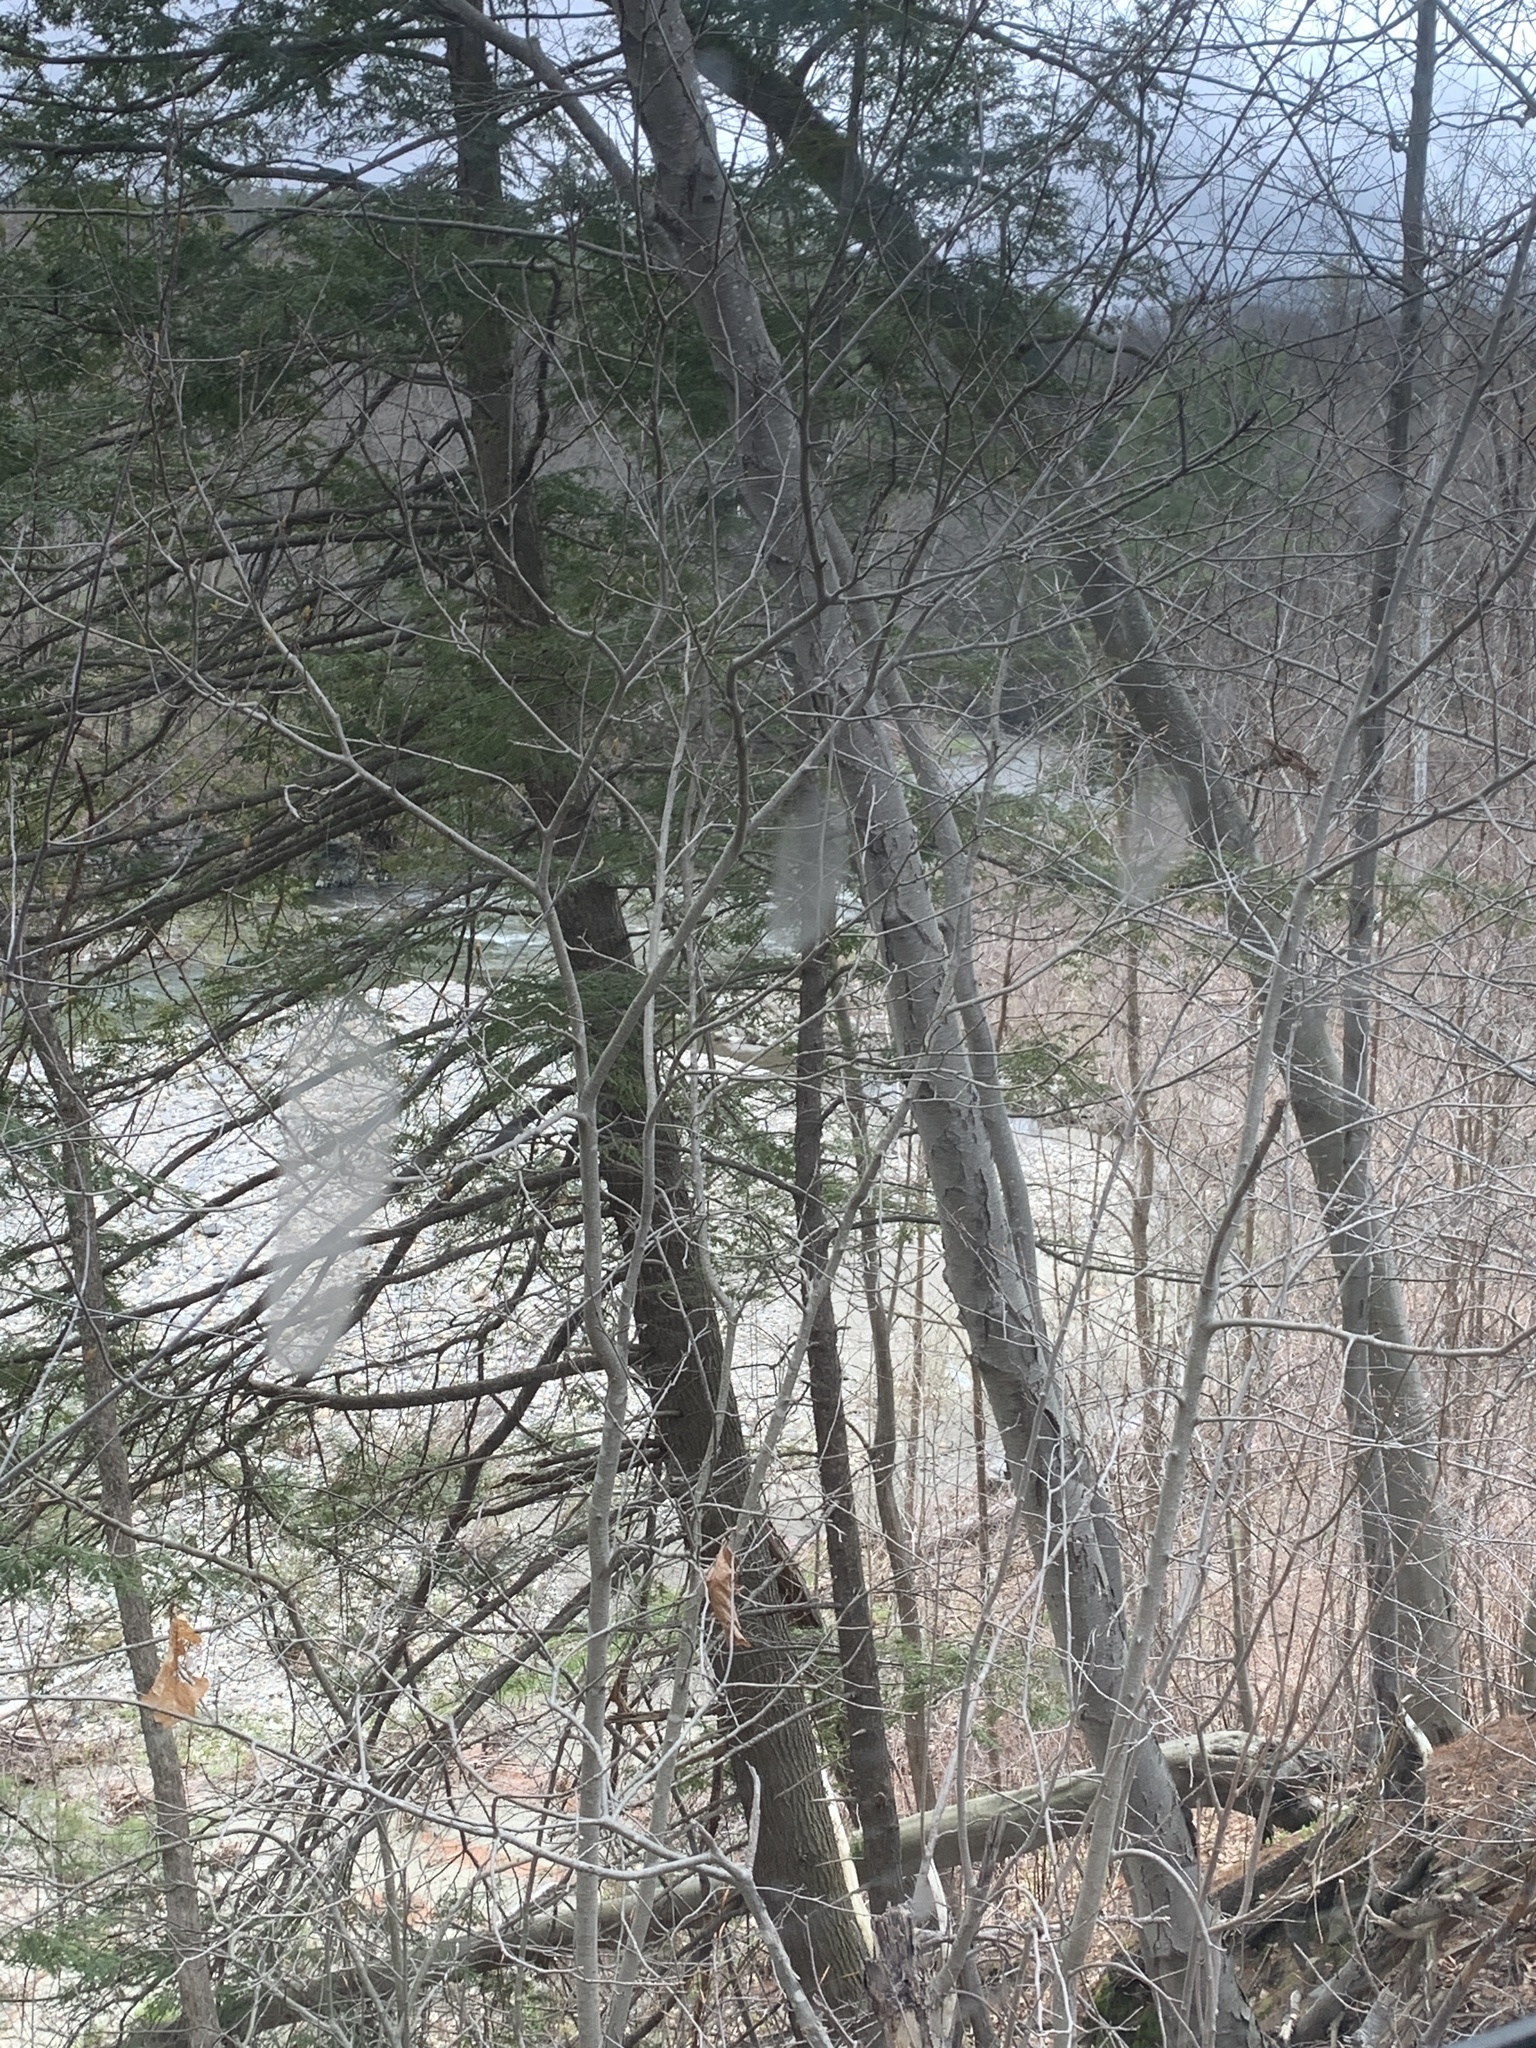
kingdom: Plantae
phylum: Tracheophyta
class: Pinopsida
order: Pinales
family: Pinaceae
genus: Tsuga
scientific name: Tsuga canadensis
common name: Eastern hemlock
